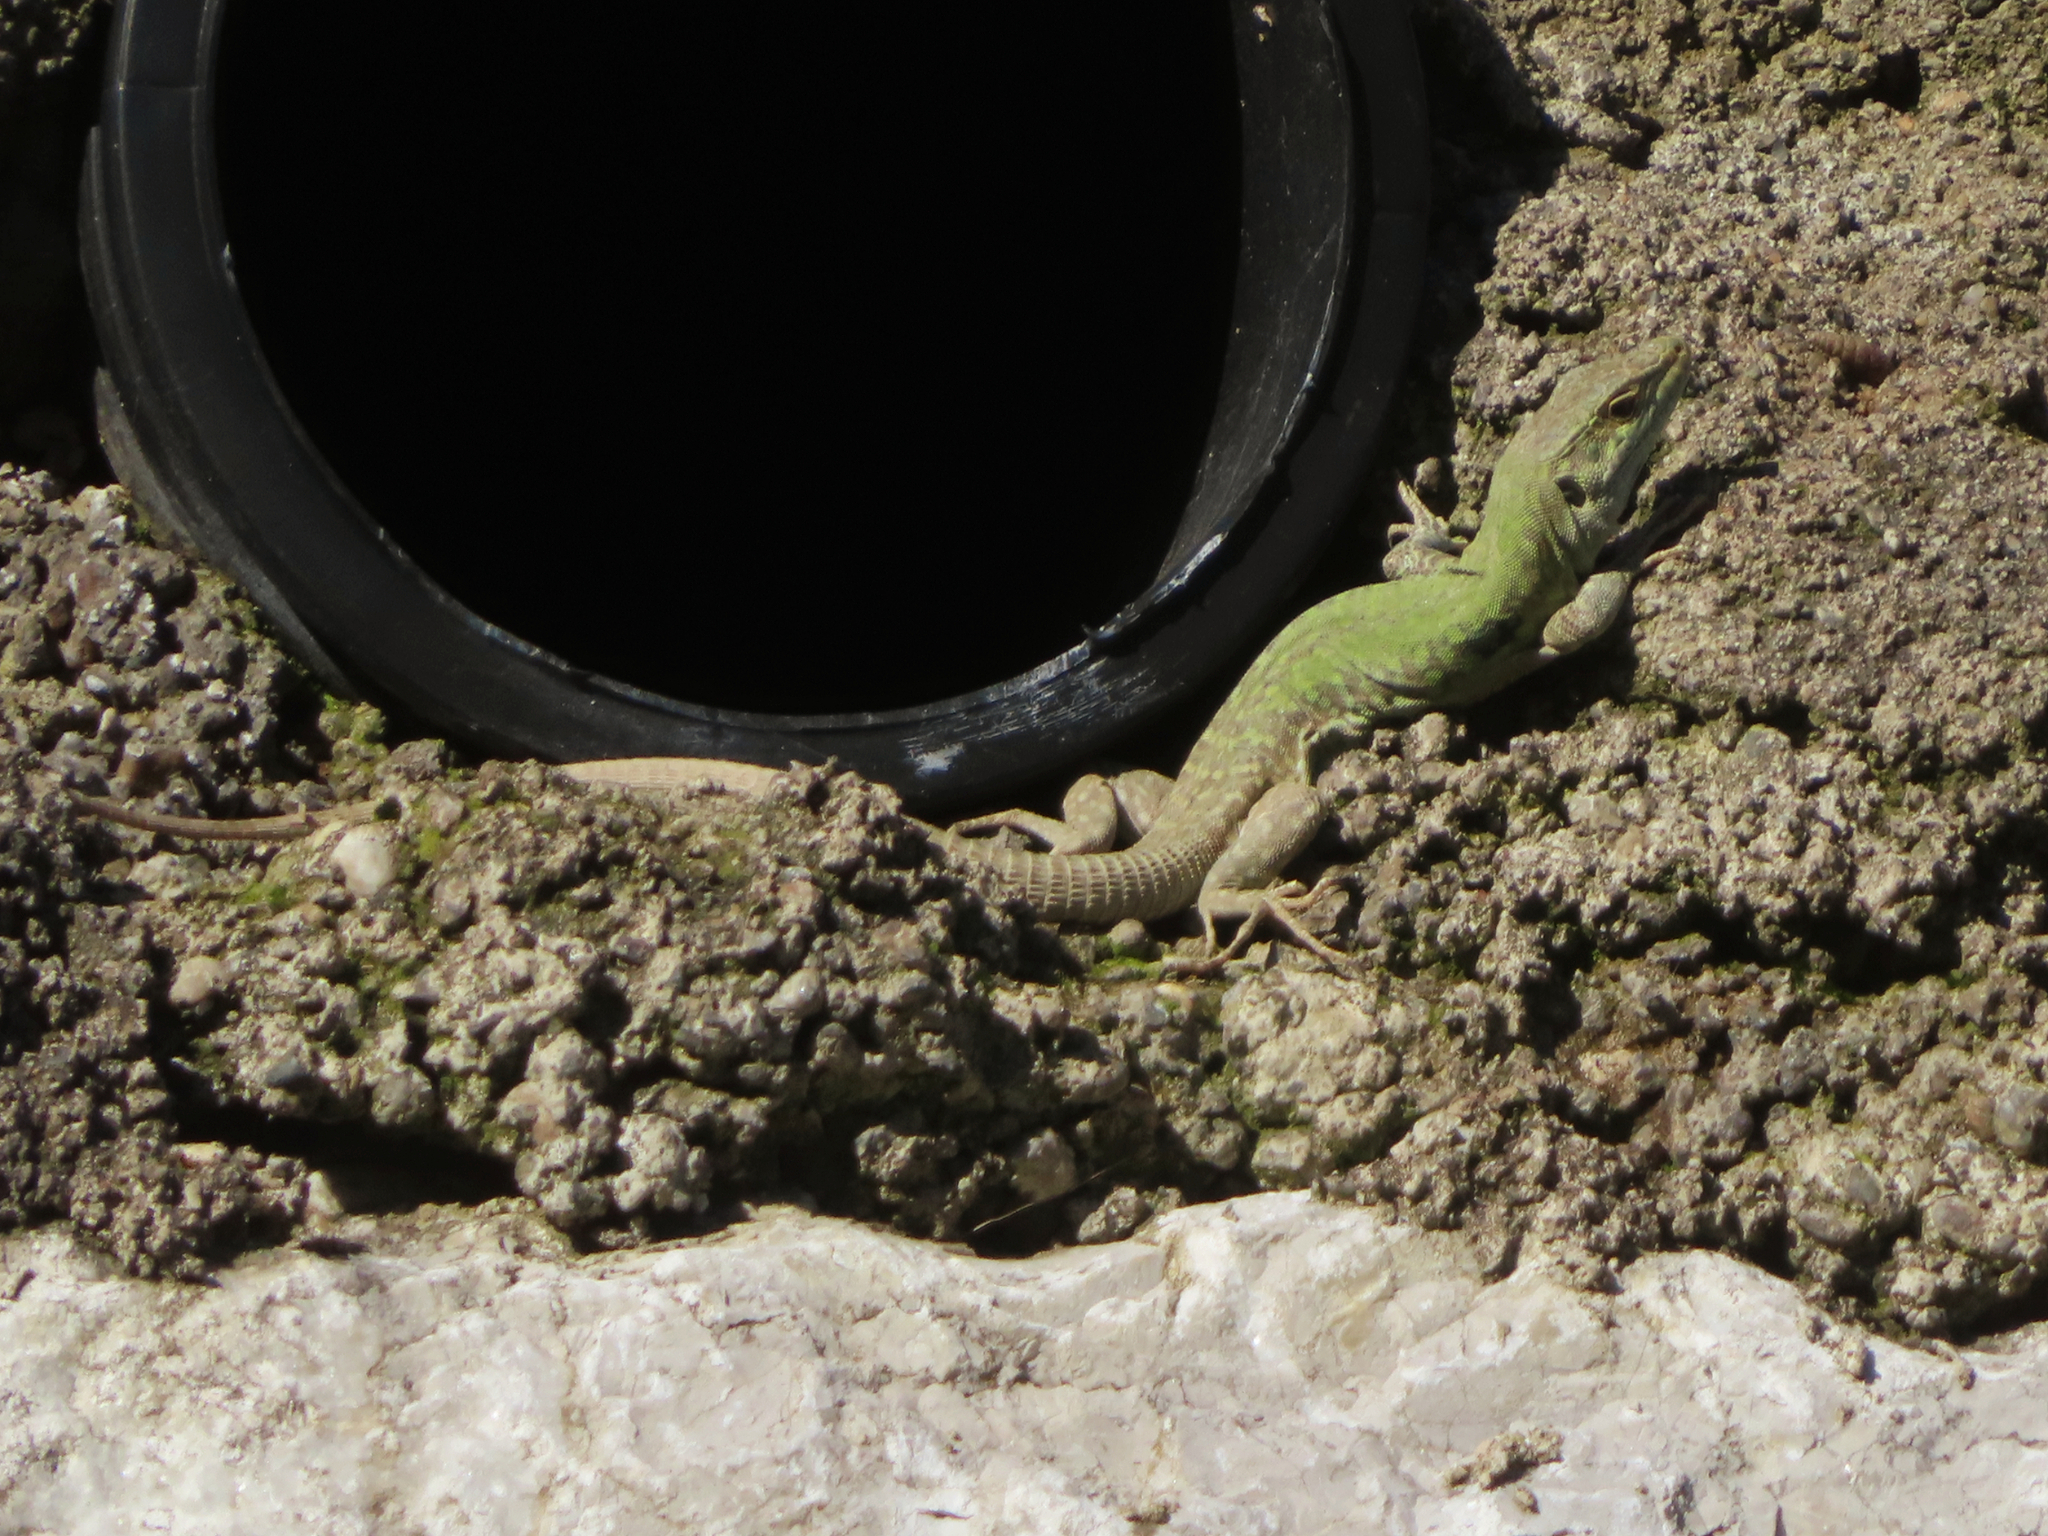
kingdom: Animalia
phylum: Chordata
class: Squamata
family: Lacertidae
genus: Podarcis
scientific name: Podarcis siculus
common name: Italian wall lizard
